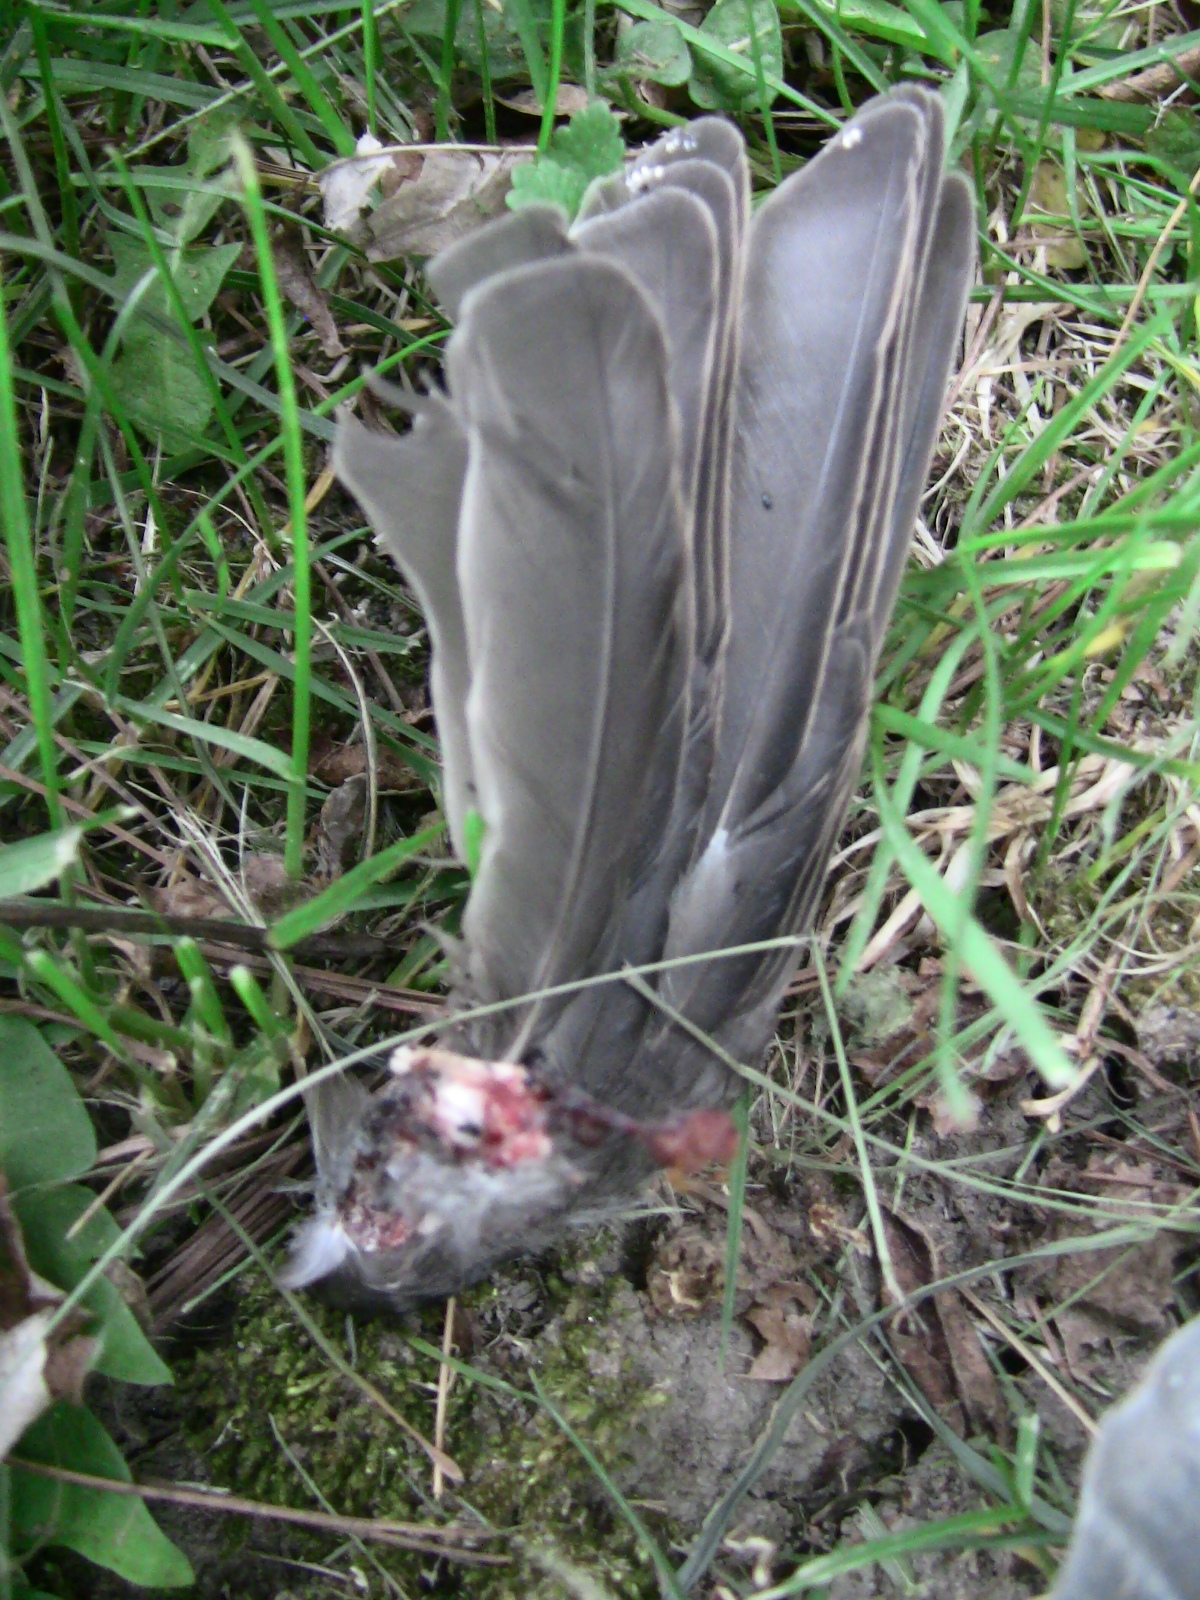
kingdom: Animalia
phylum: Chordata
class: Aves
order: Passeriformes
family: Sturnidae
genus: Sturnus
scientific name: Sturnus vulgaris
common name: Common starling
